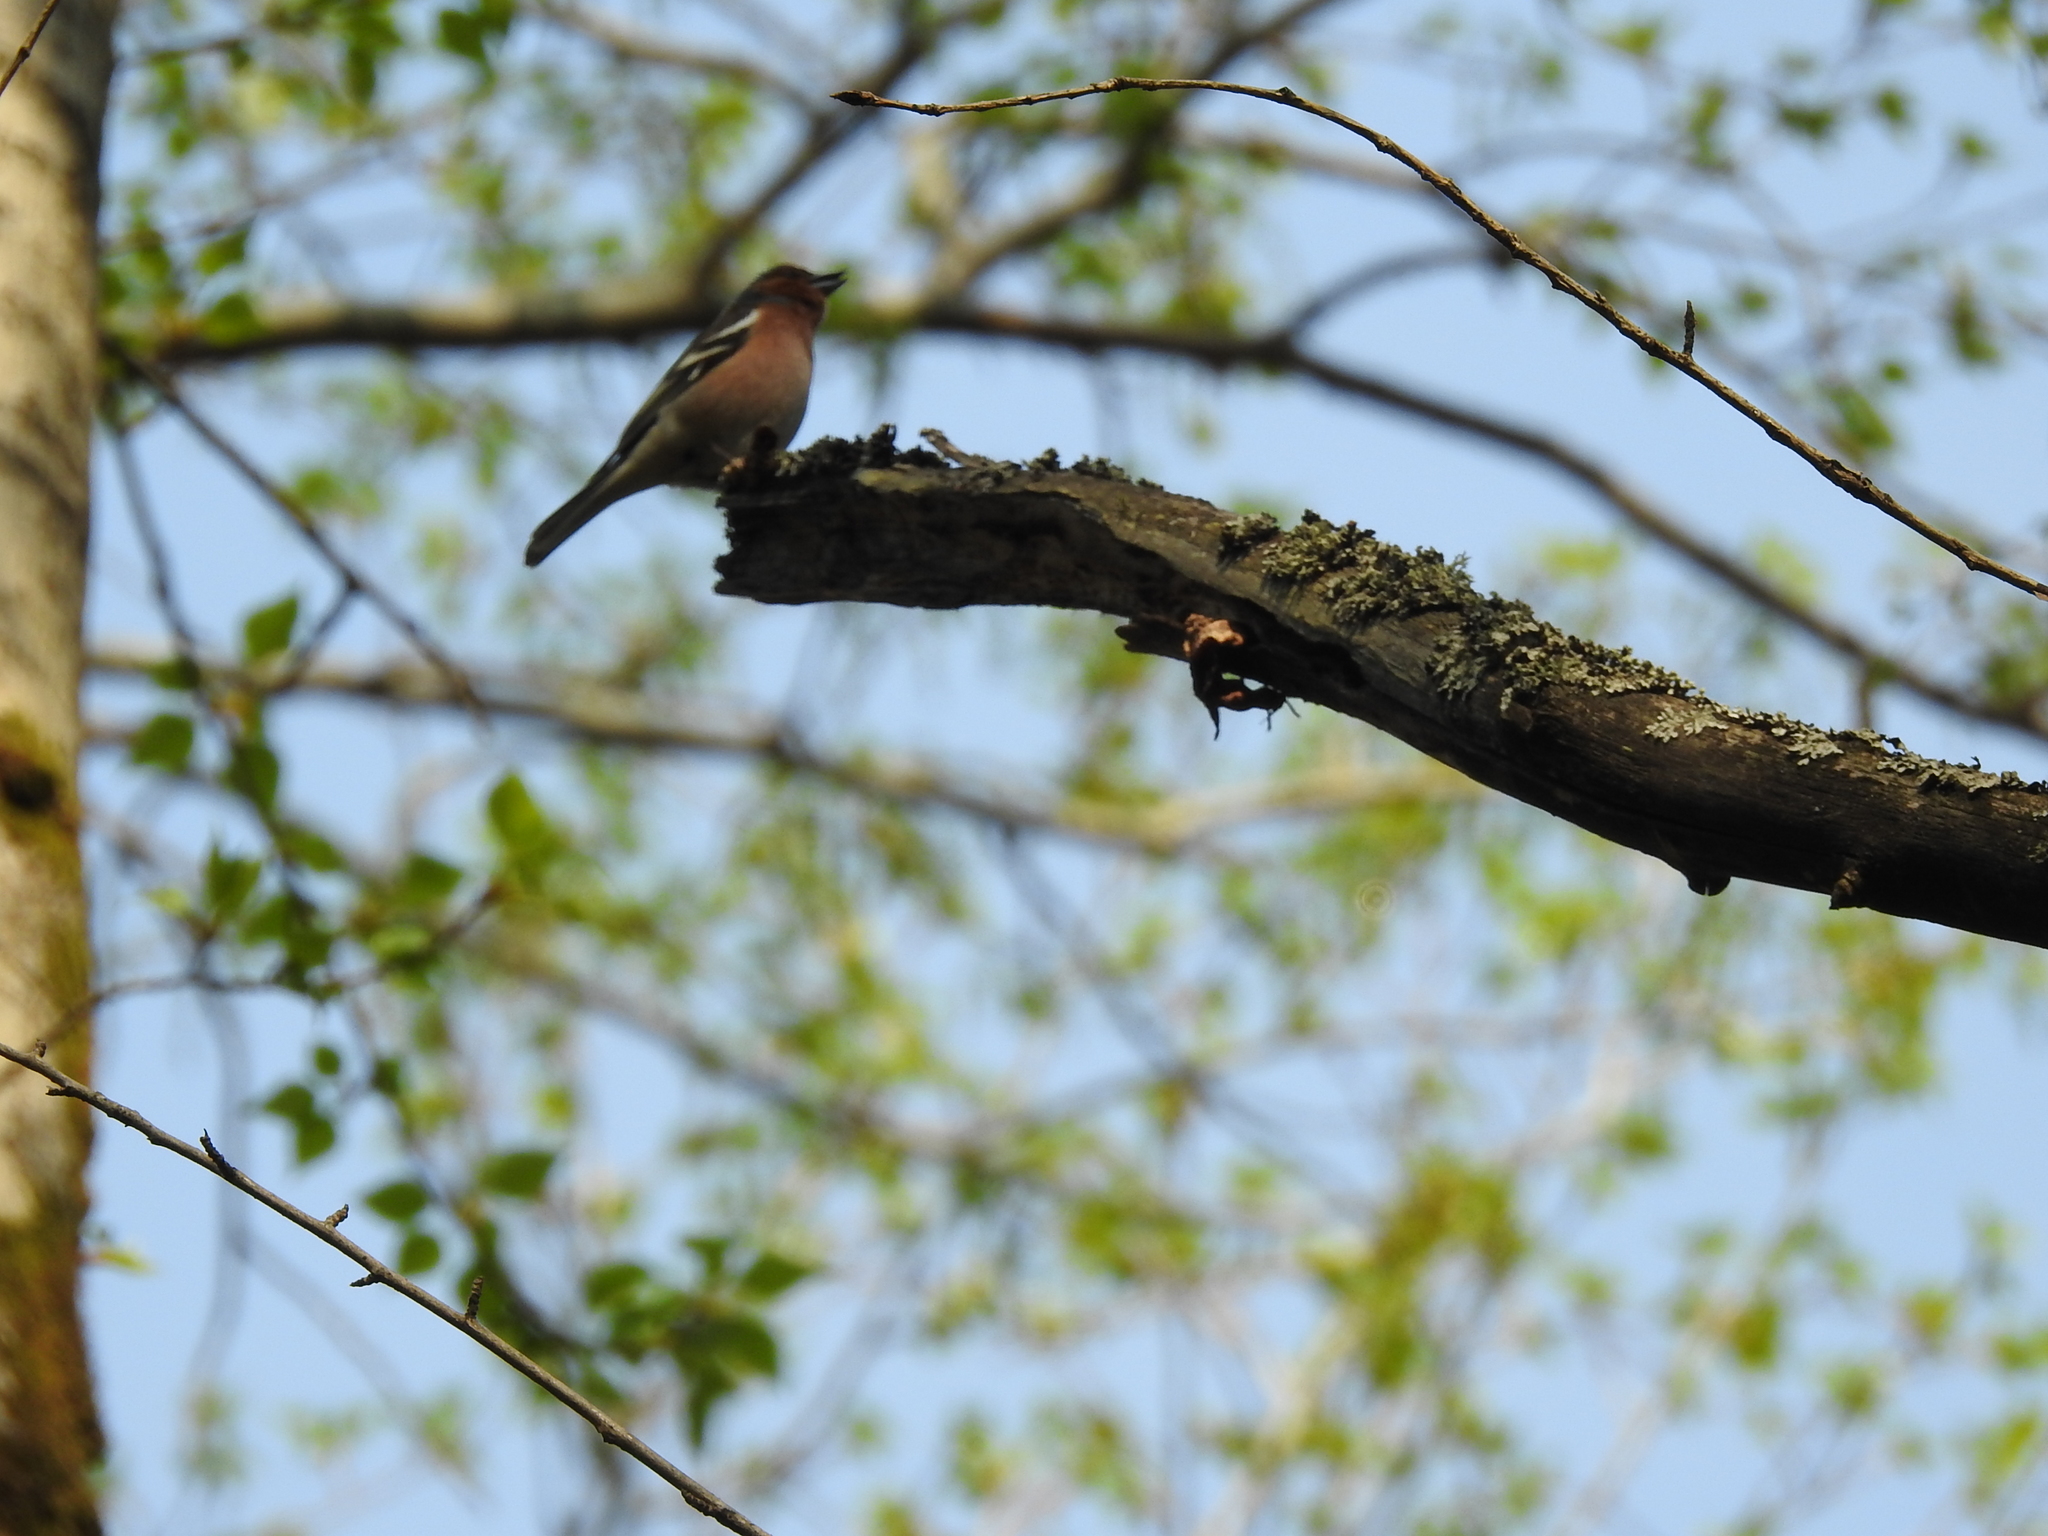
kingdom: Animalia
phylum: Chordata
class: Aves
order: Passeriformes
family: Fringillidae
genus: Fringilla
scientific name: Fringilla coelebs
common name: Common chaffinch
